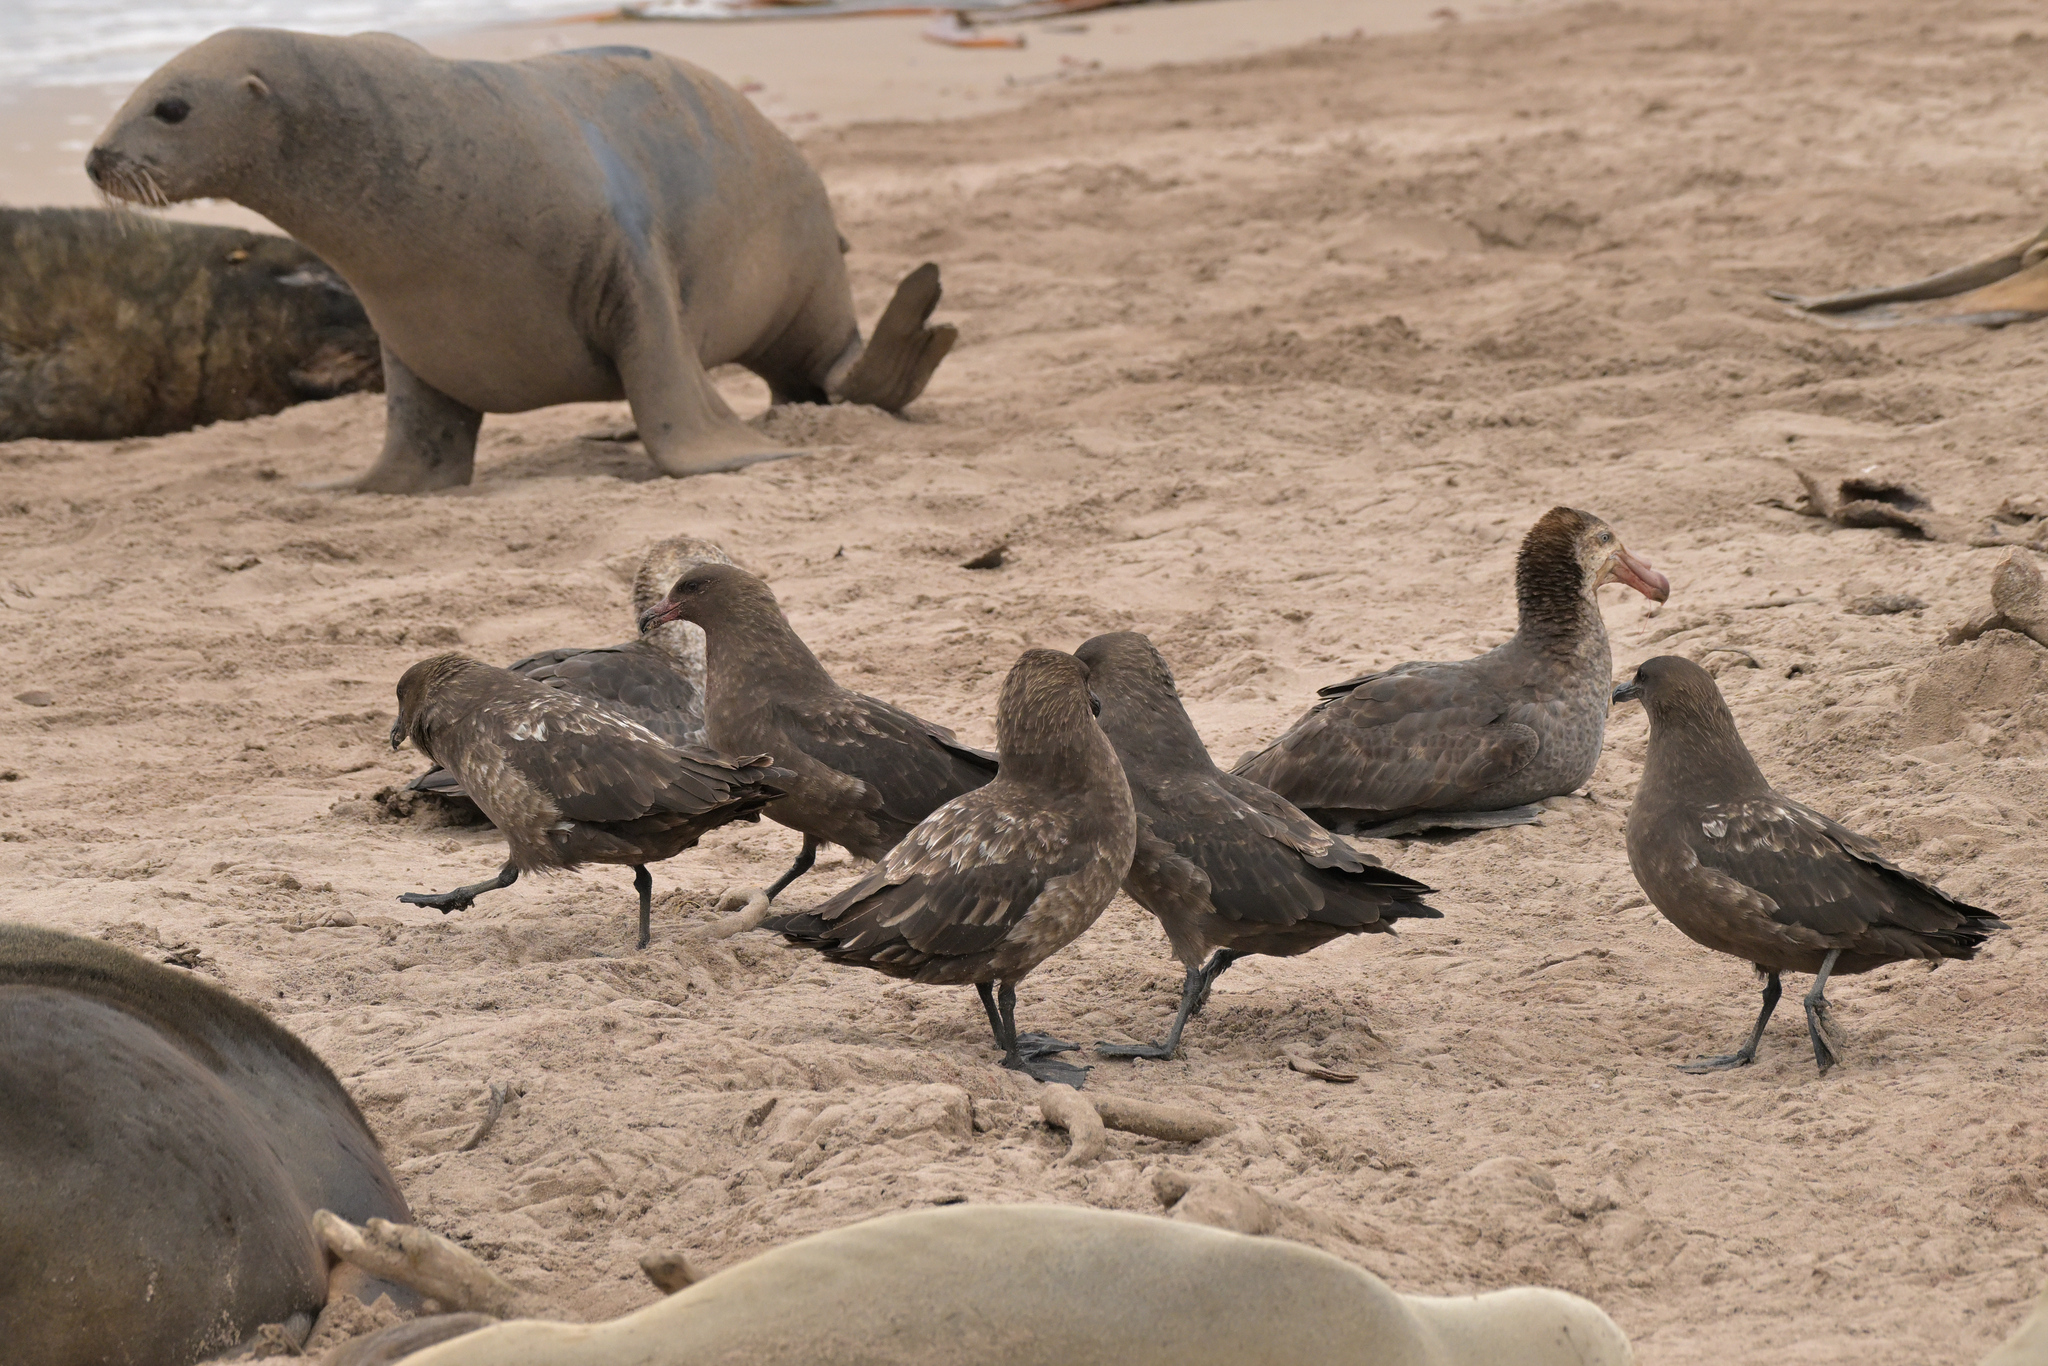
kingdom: Animalia
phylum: Chordata
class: Aves
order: Charadriiformes
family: Stercorariidae
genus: Stercorarius
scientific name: Stercorarius antarcticus
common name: Brown skua
